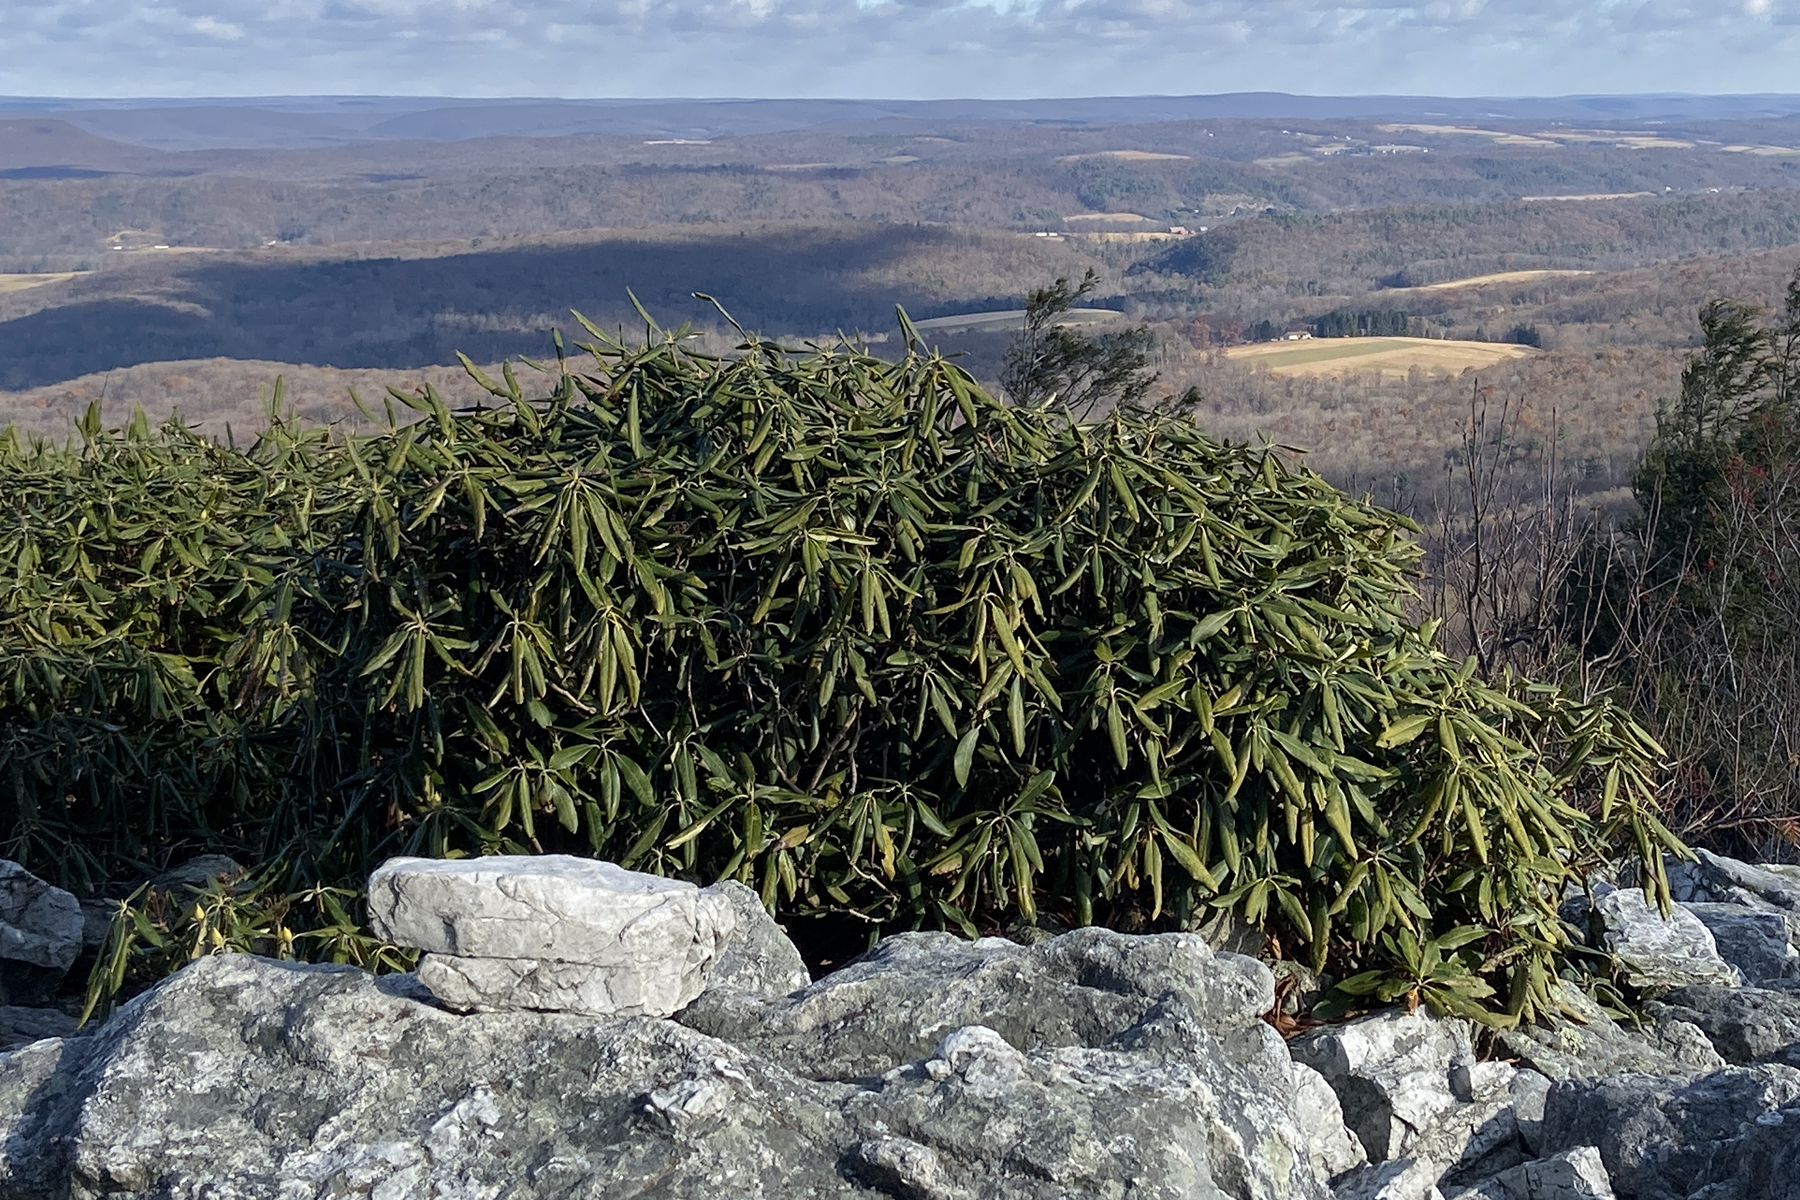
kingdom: Plantae
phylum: Tracheophyta
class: Magnoliopsida
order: Ericales
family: Ericaceae
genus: Rhododendron
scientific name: Rhododendron maximum
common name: Great rhododendron
